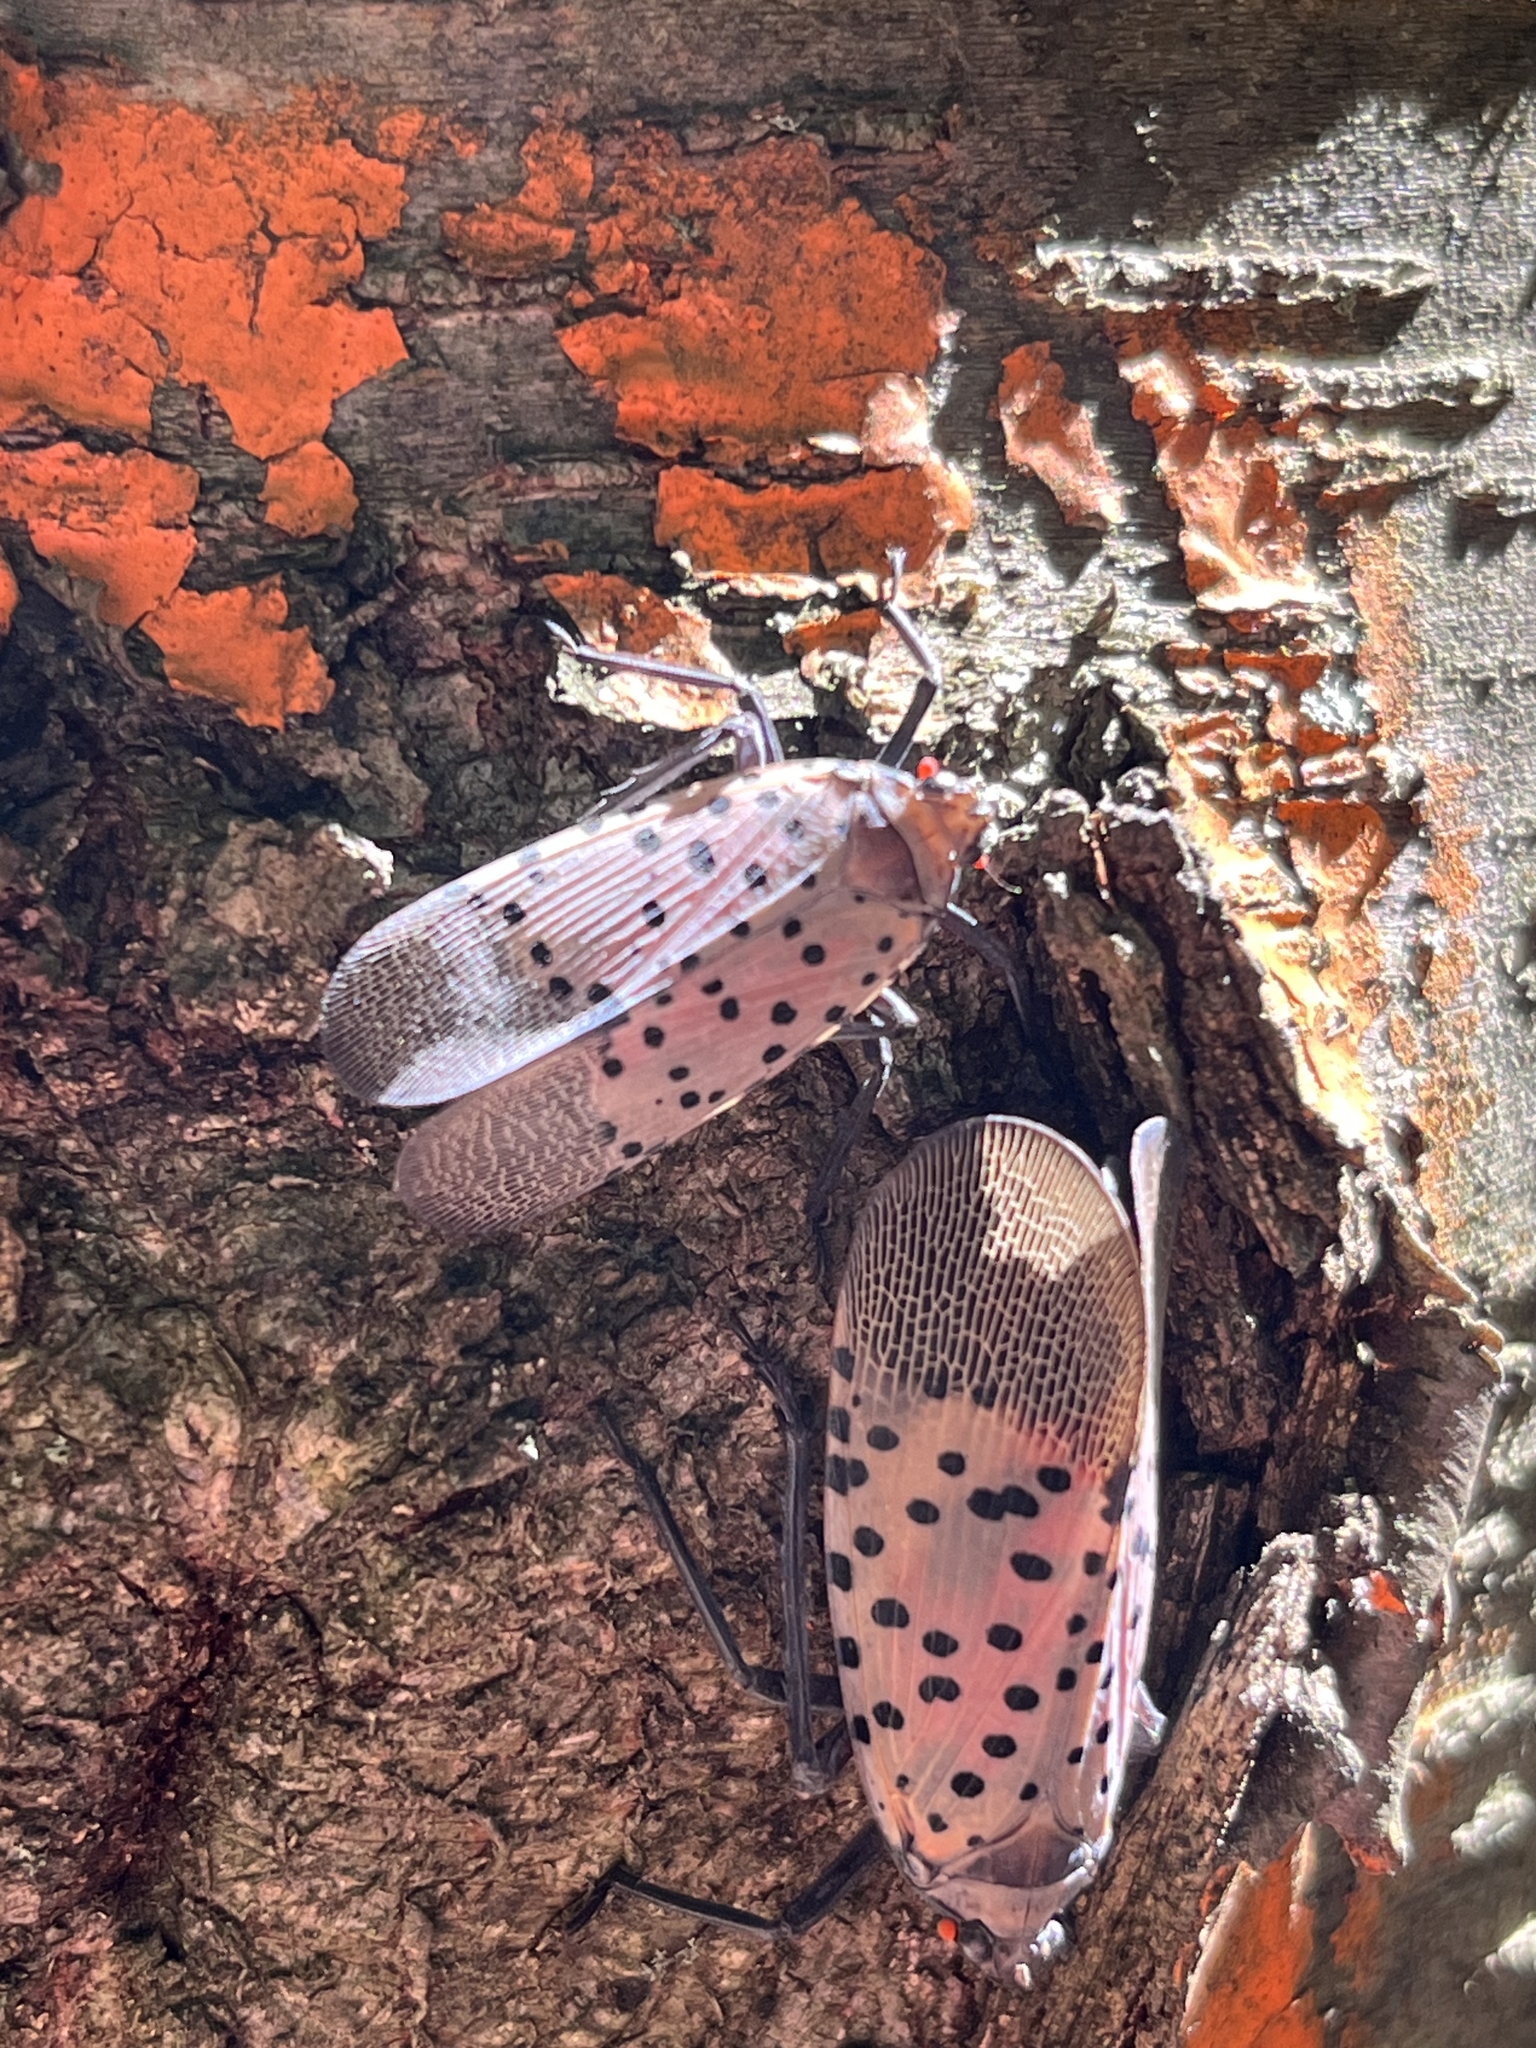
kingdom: Animalia
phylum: Arthropoda
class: Insecta
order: Hemiptera
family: Fulgoridae
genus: Lycorma
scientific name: Lycorma delicatula
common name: Spotted lanternfly
